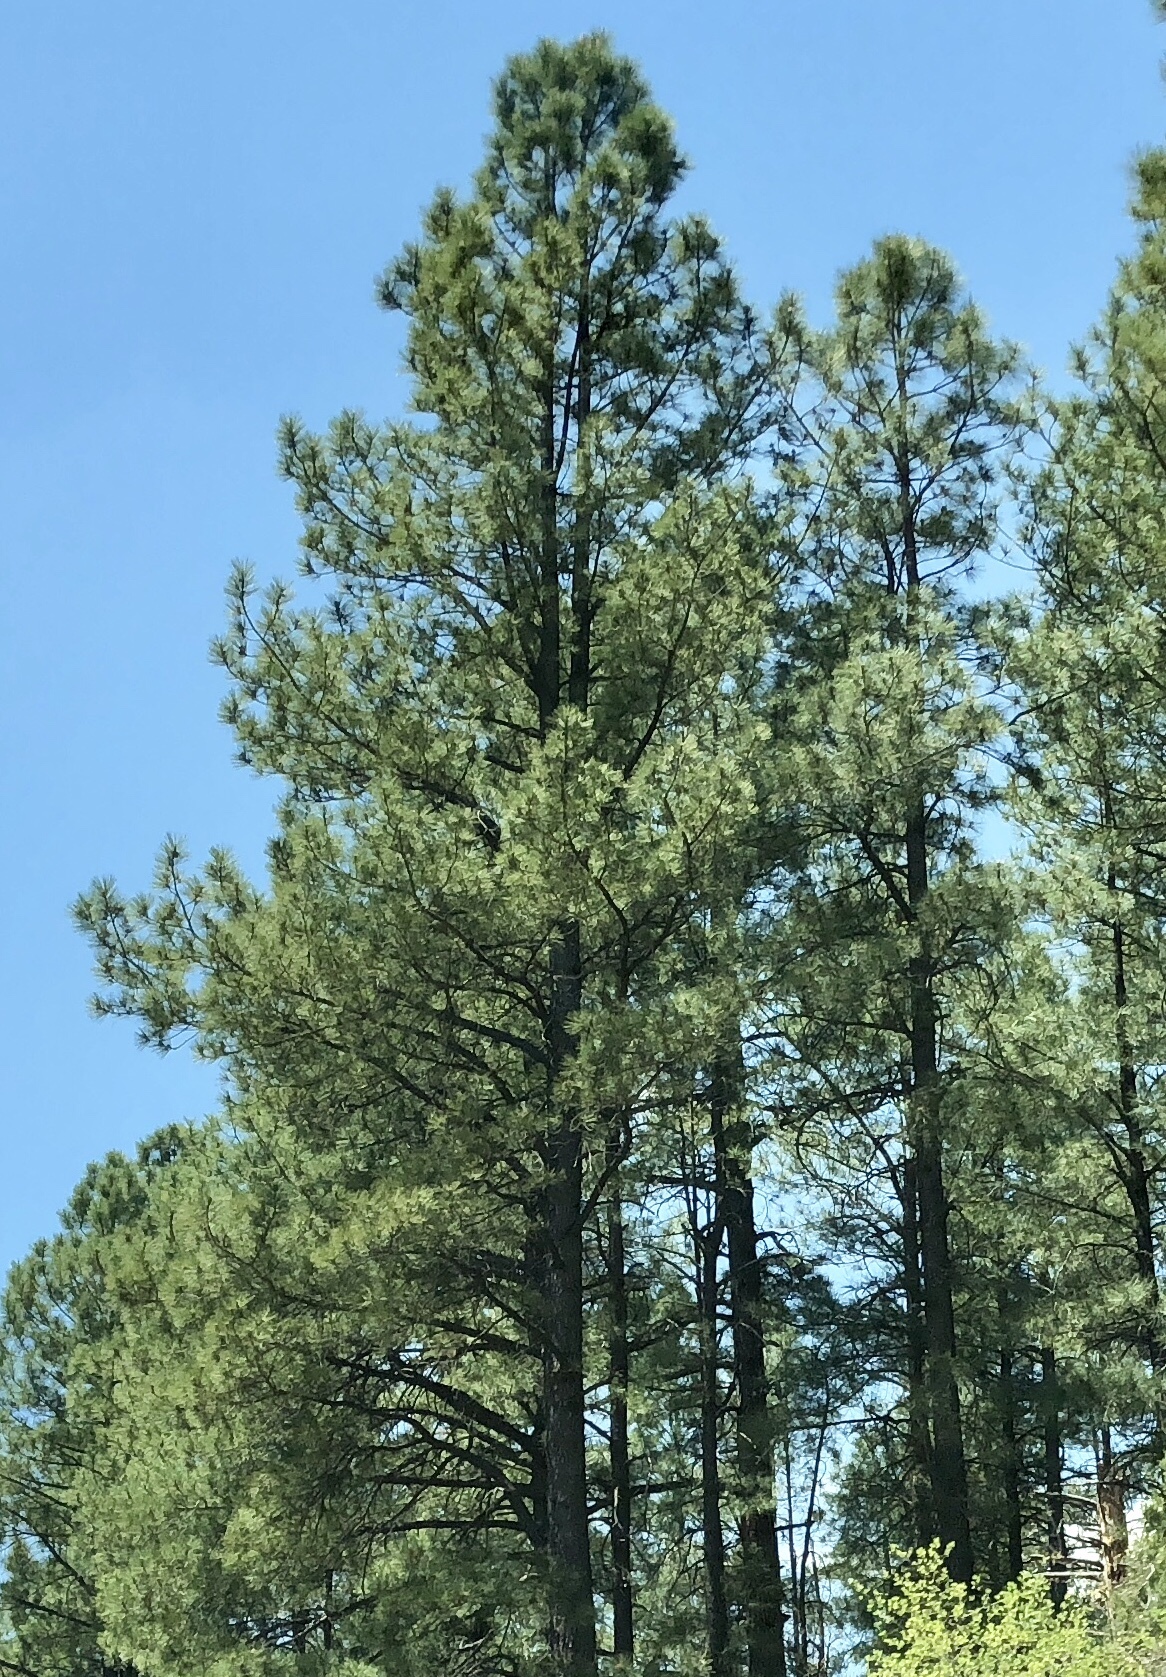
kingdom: Plantae
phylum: Tracheophyta
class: Pinopsida
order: Pinales
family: Pinaceae
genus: Pinus
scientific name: Pinus ponderosa
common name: Western yellow-pine
